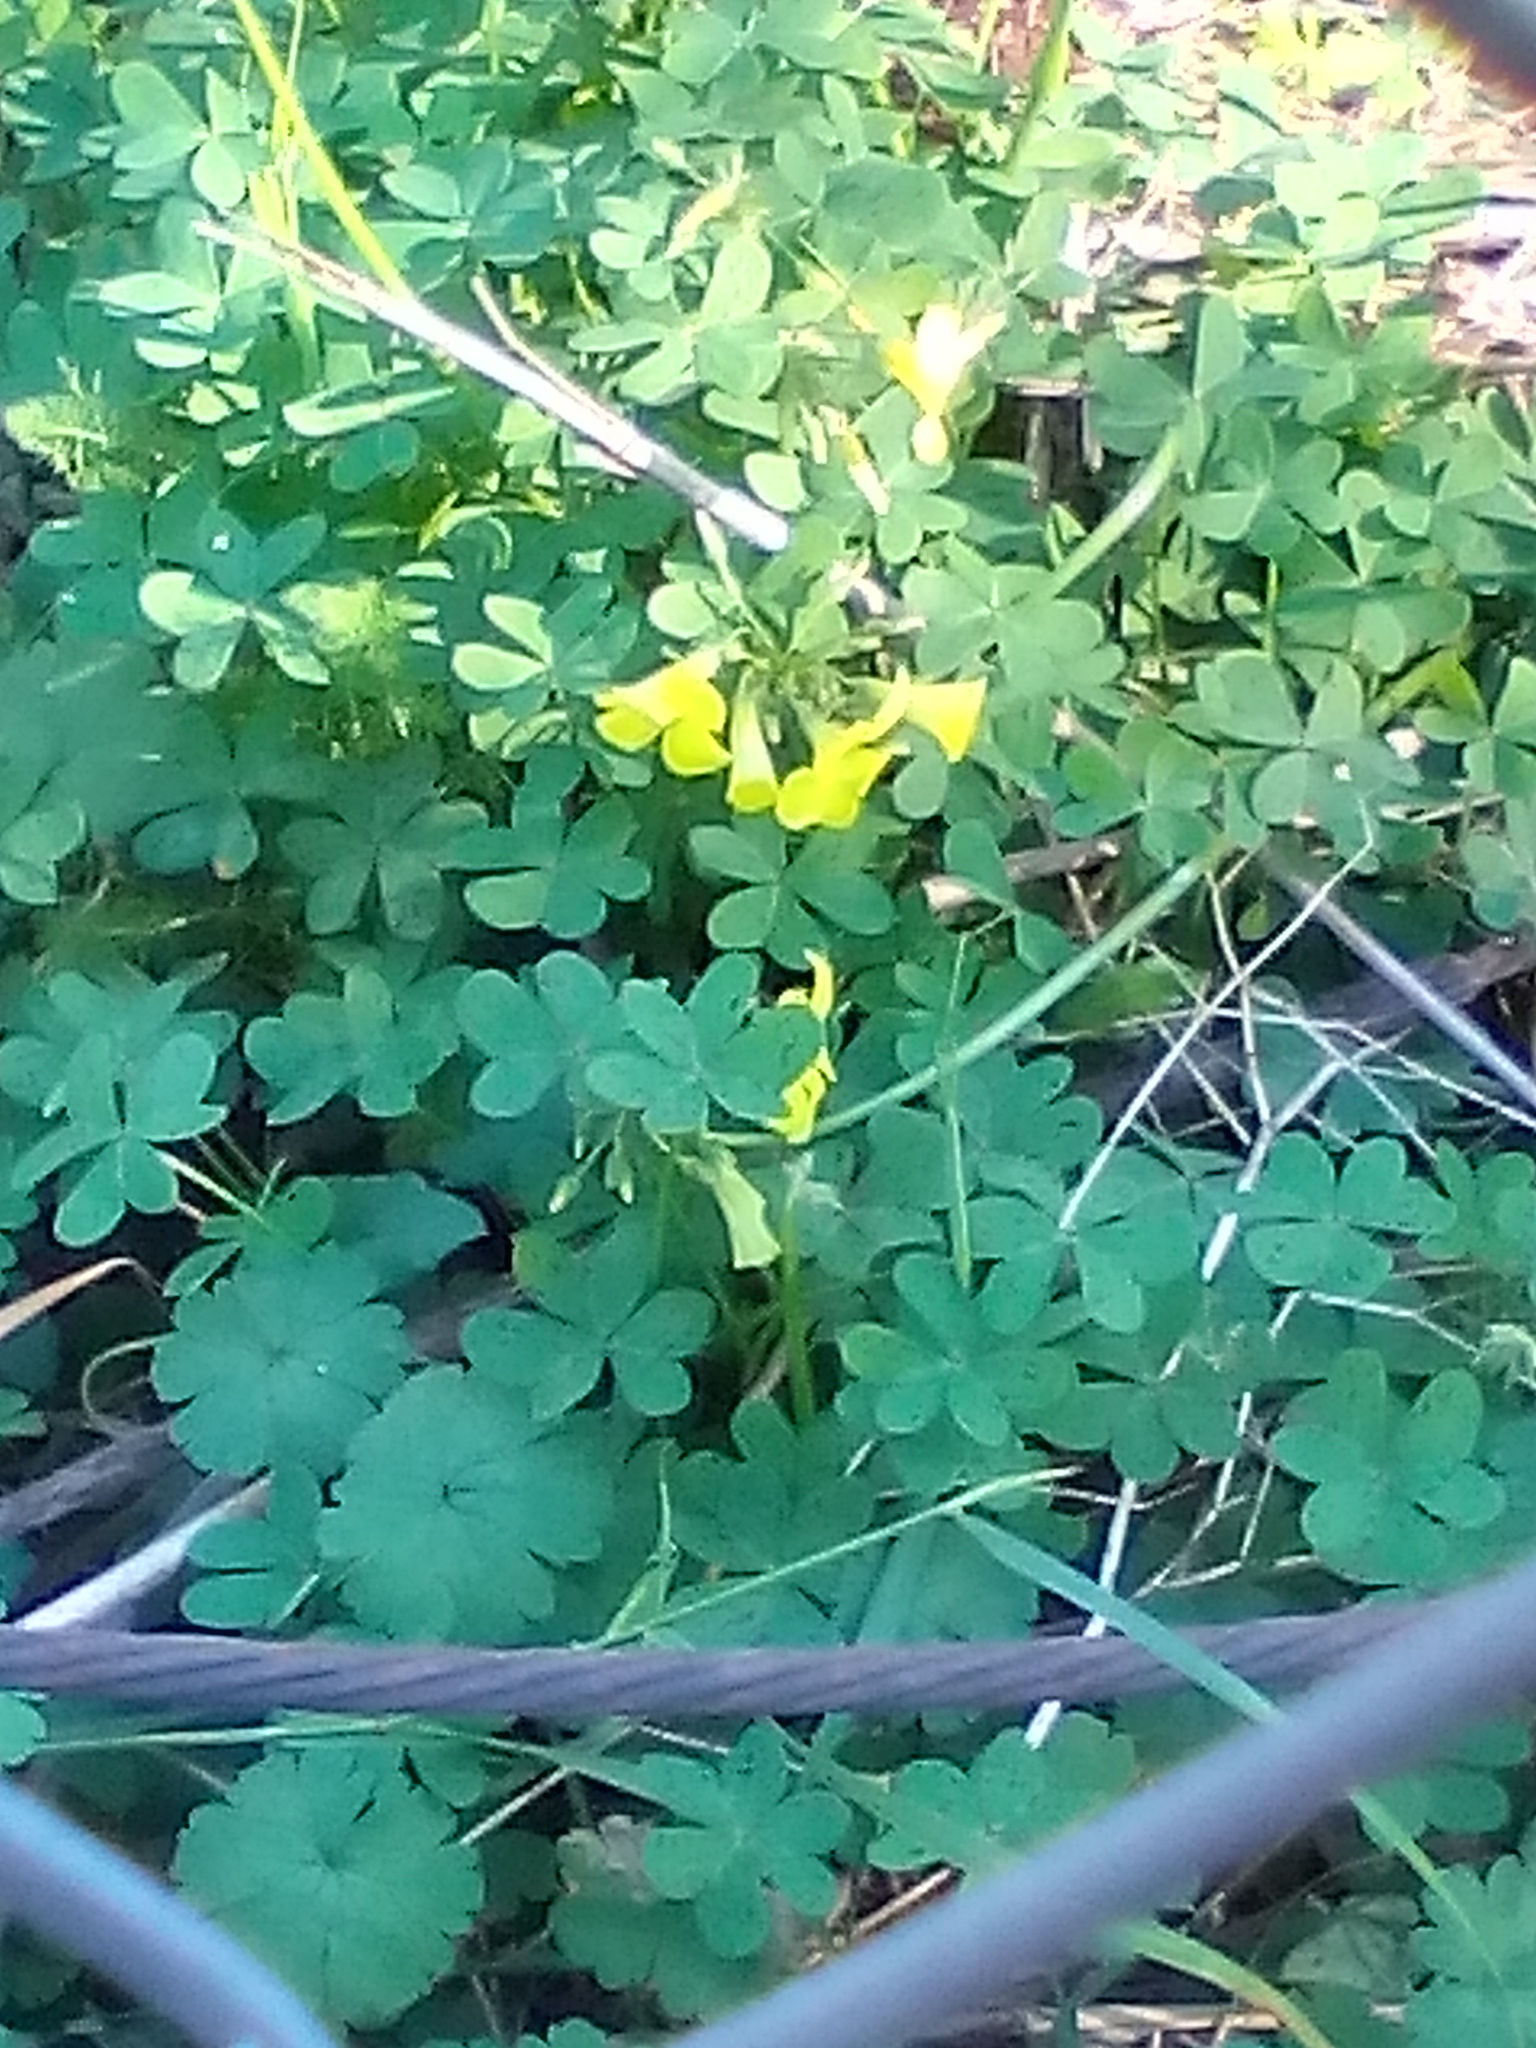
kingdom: Plantae
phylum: Tracheophyta
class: Magnoliopsida
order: Oxalidales
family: Oxalidaceae
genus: Oxalis
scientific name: Oxalis pes-caprae
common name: Bermuda-buttercup
